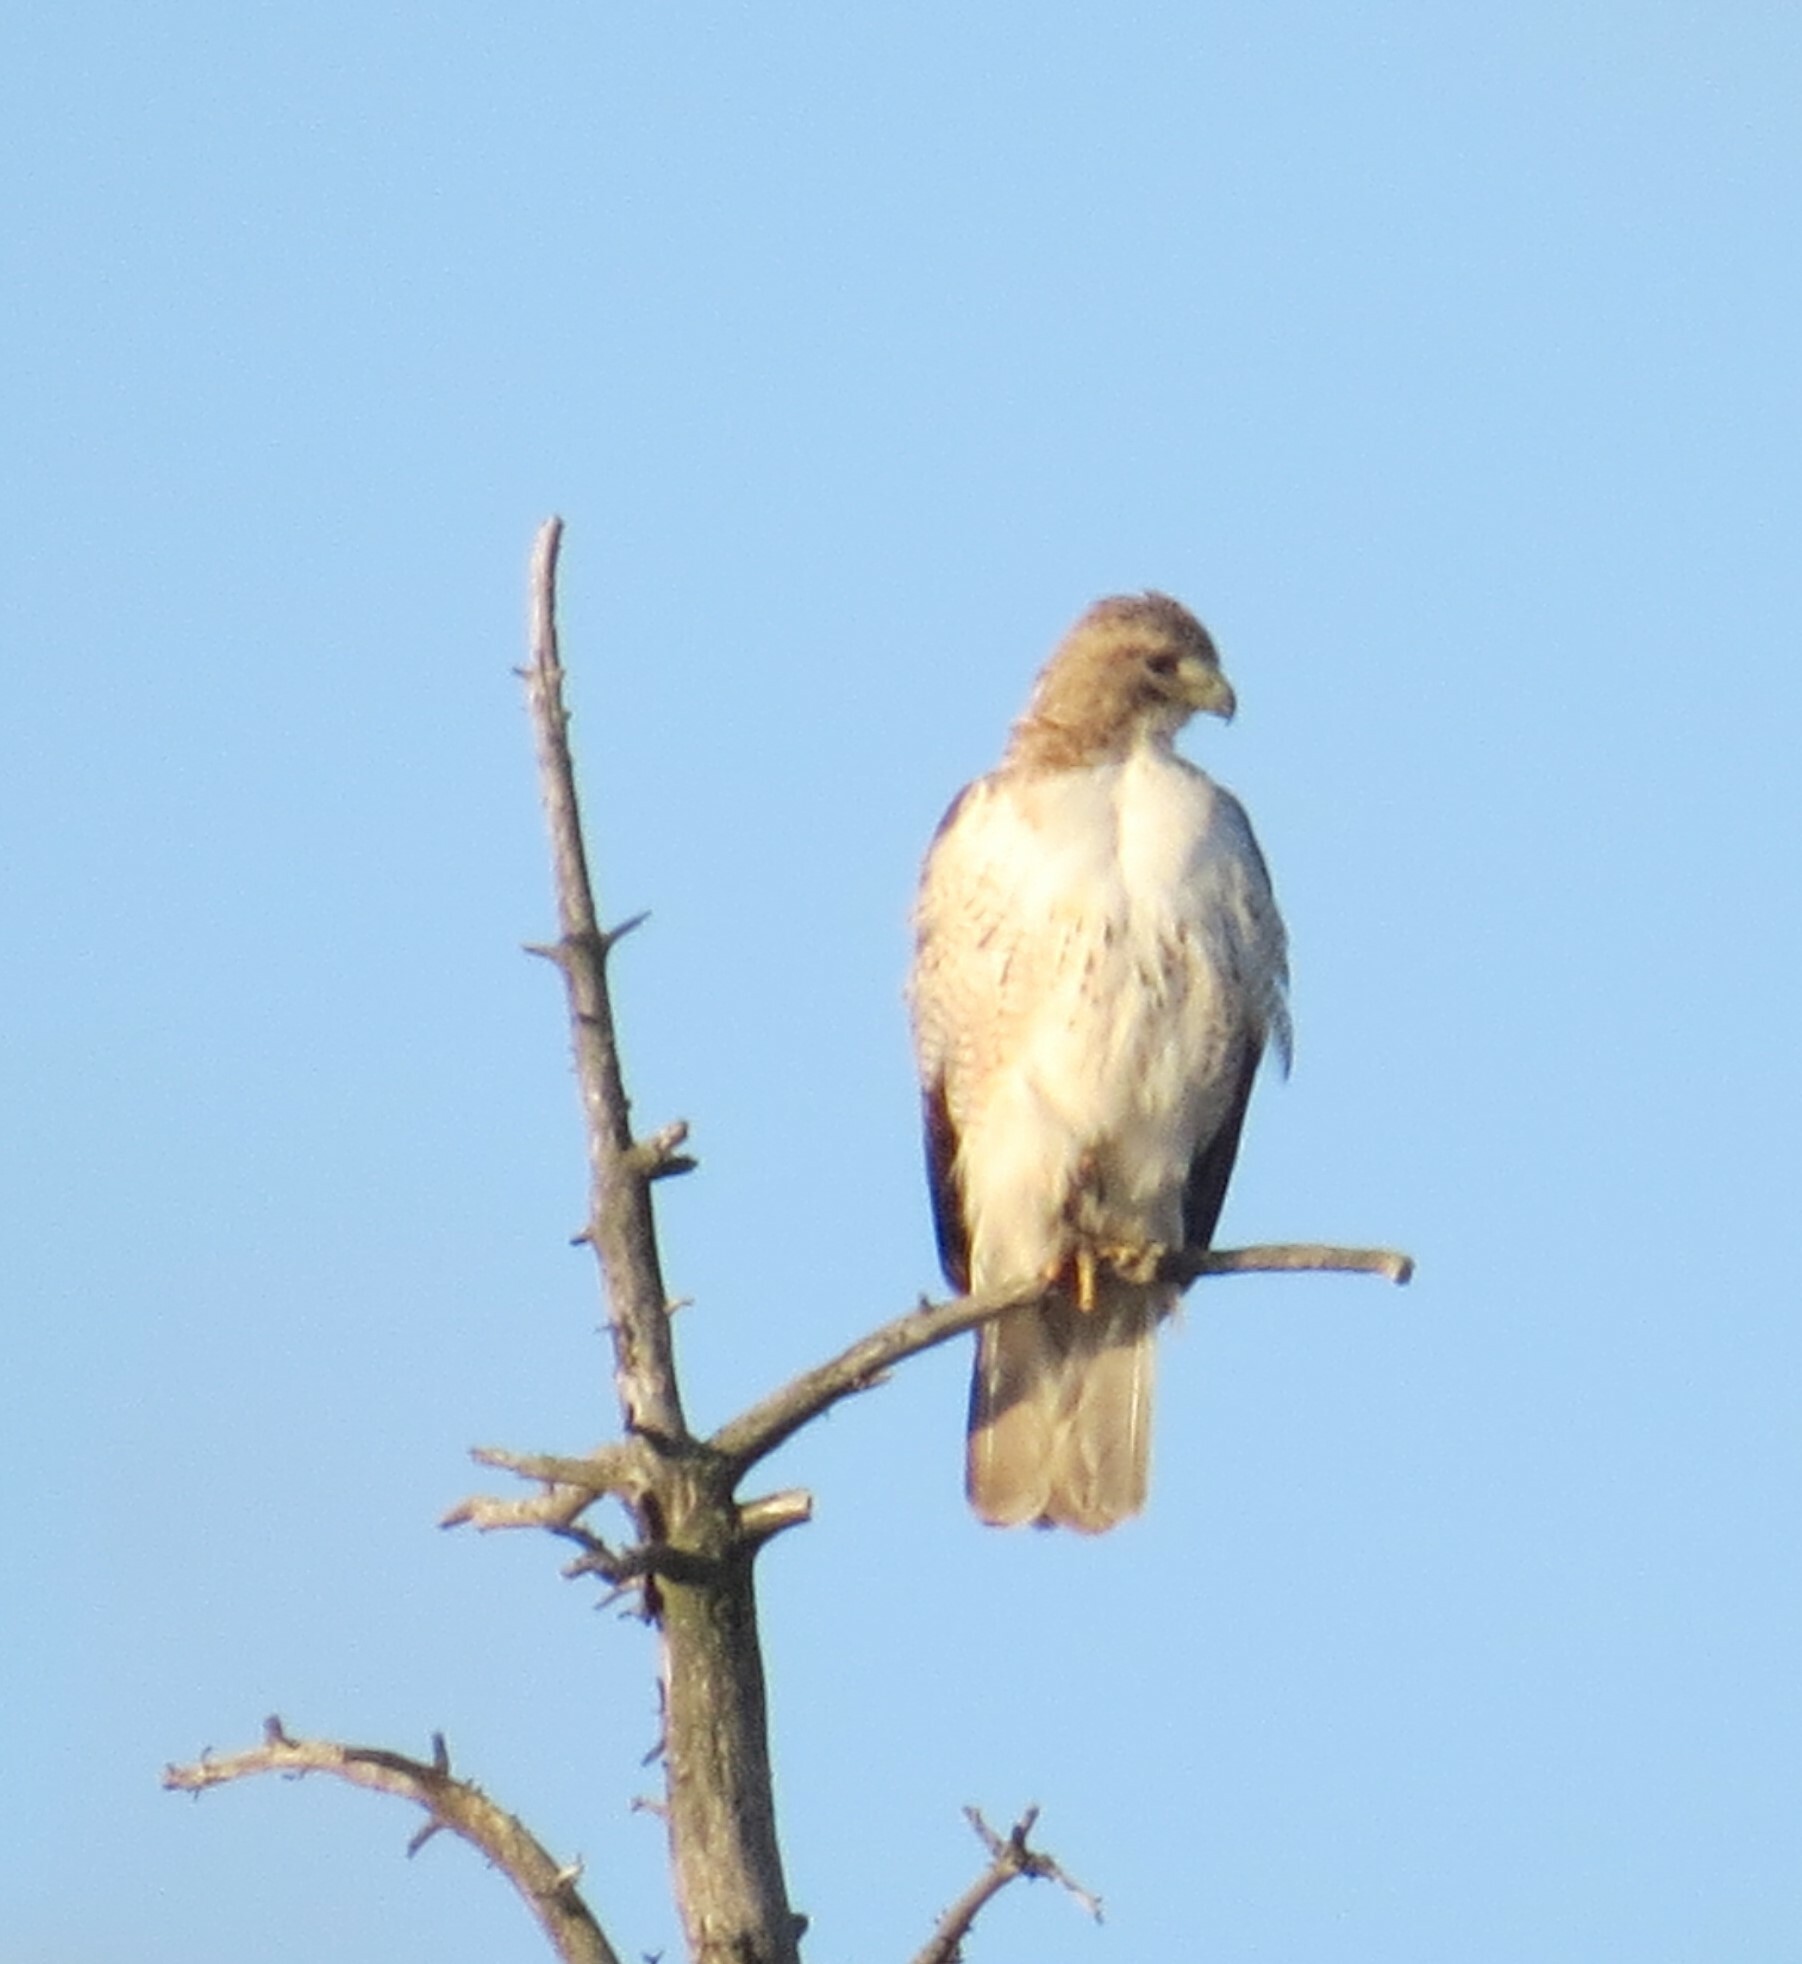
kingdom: Animalia
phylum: Chordata
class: Aves
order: Accipitriformes
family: Accipitridae
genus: Buteo
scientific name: Buteo jamaicensis
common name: Red-tailed hawk
